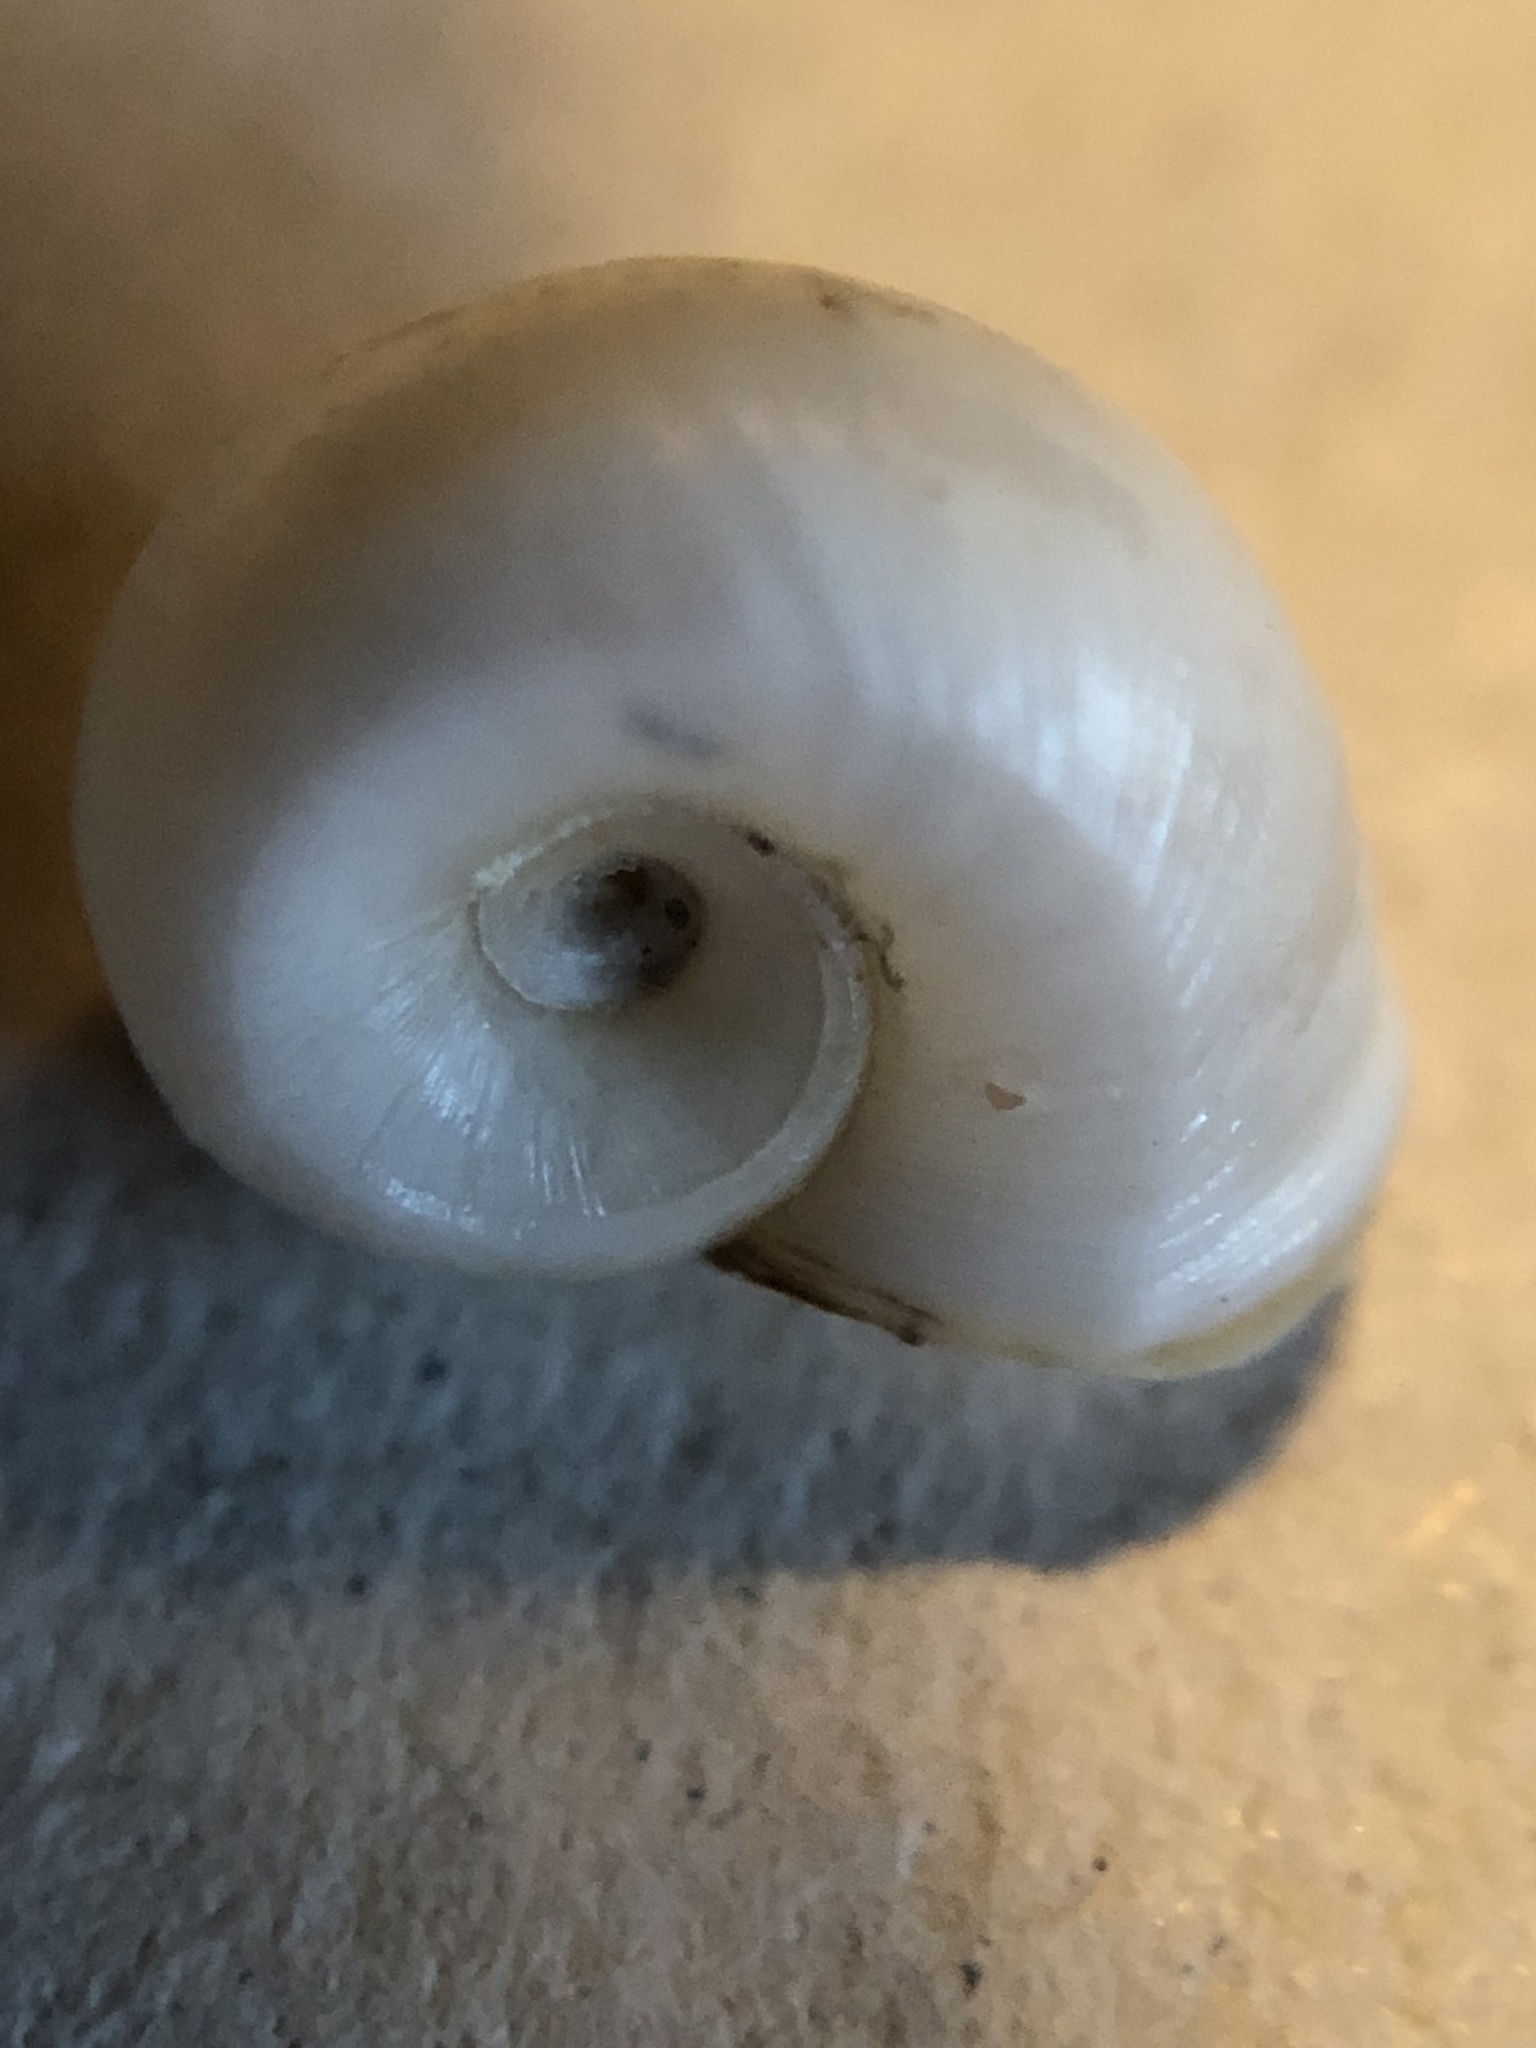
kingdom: Animalia
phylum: Mollusca
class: Gastropoda
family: Planorbidae
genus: Planorbella
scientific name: Planorbella trivolvis
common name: Marsh rams-horn
